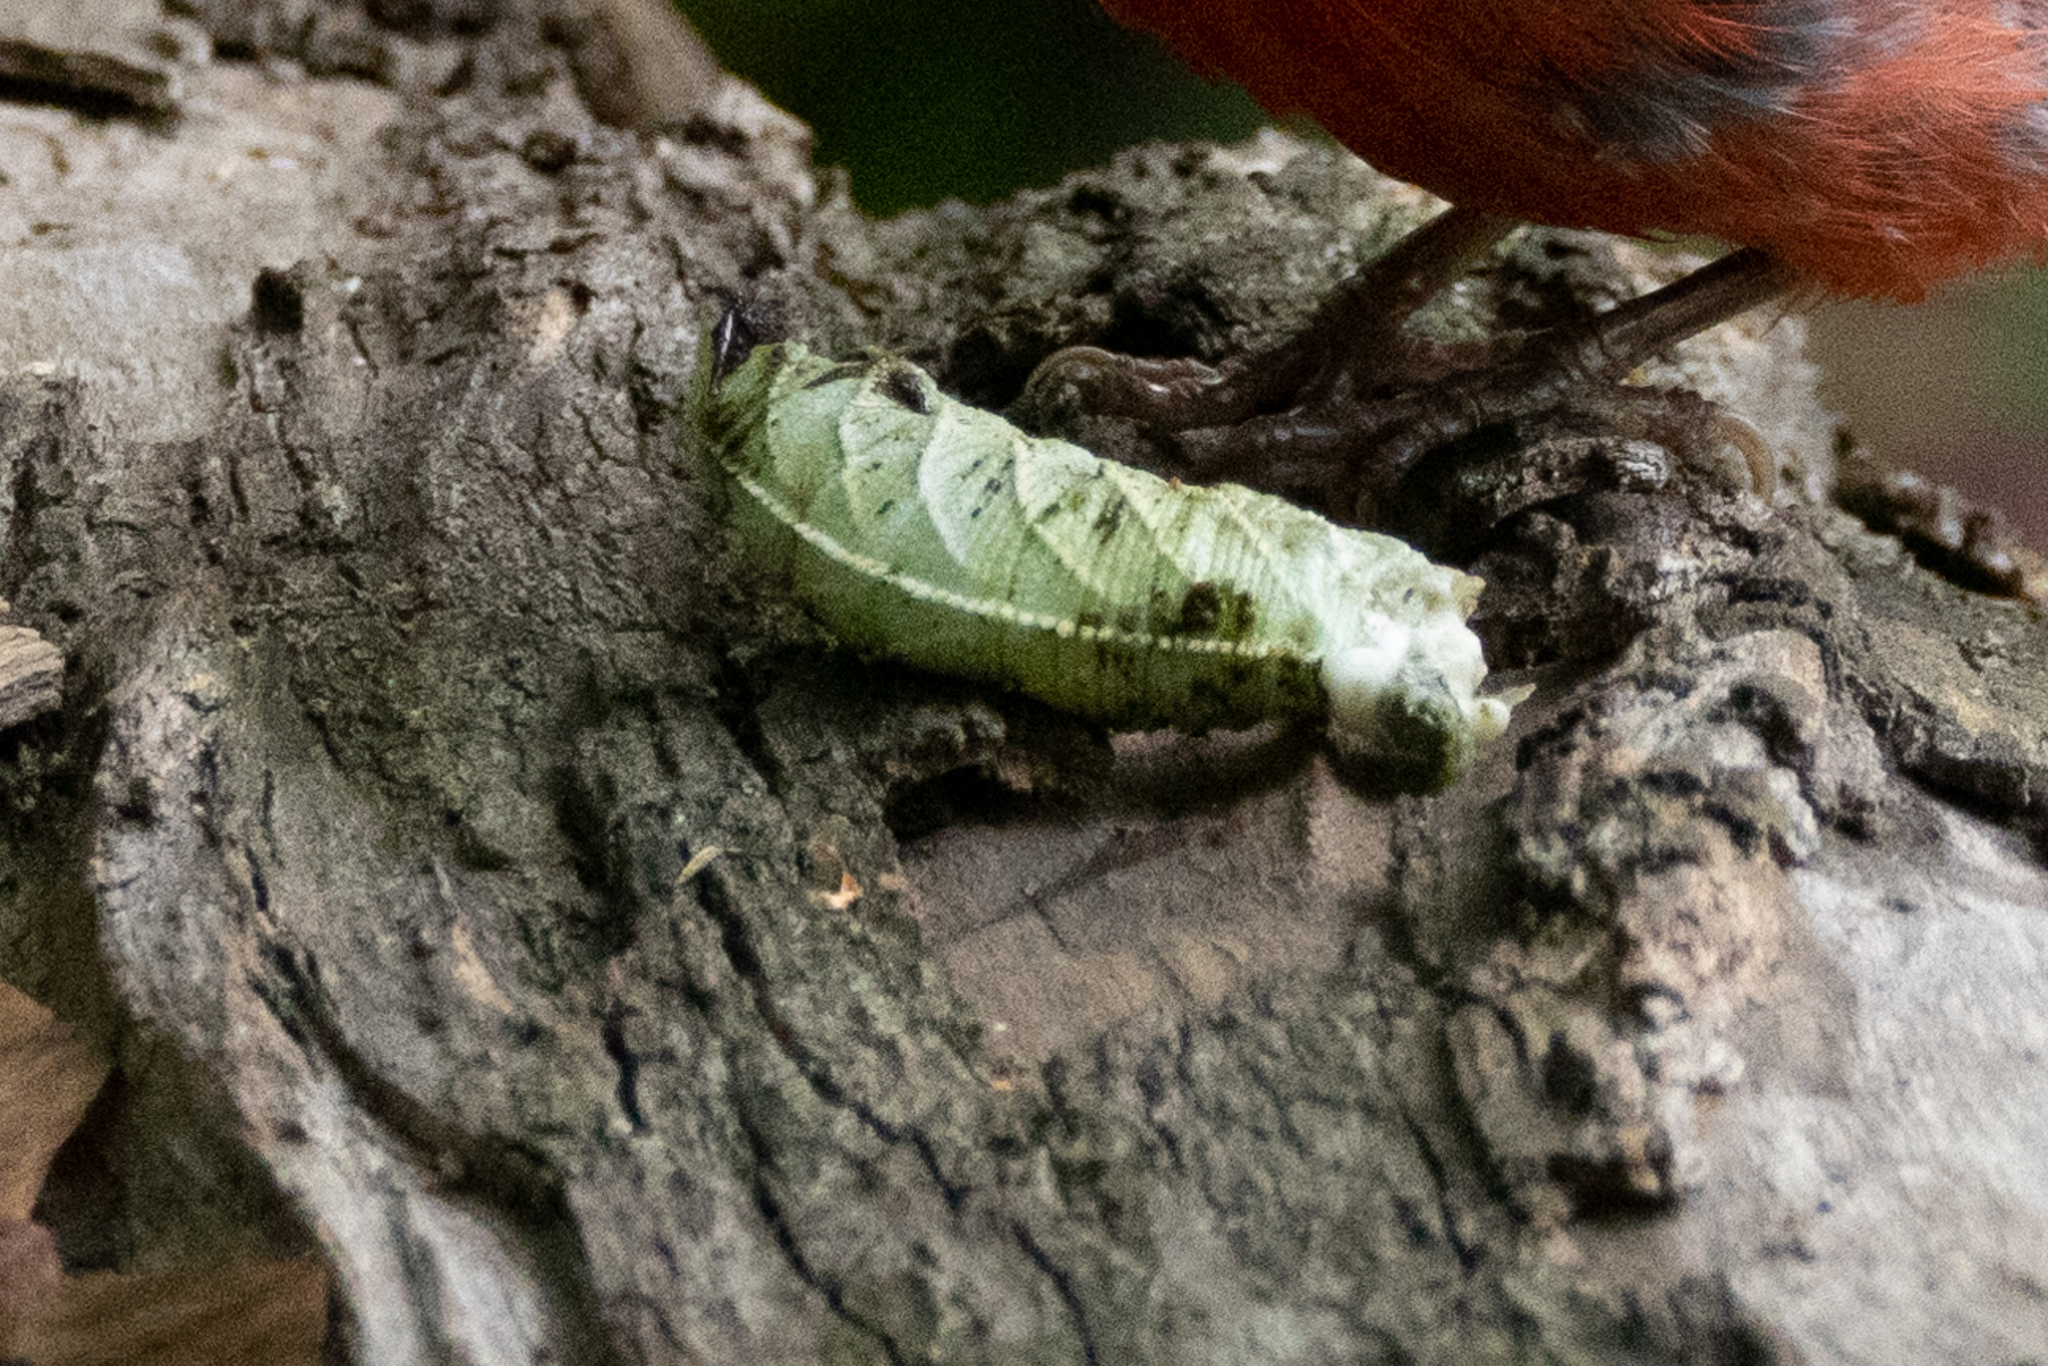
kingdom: Animalia
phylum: Arthropoda
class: Insecta
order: Lepidoptera
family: Sphingidae
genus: Ceratomia
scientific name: Ceratomia amyntor
